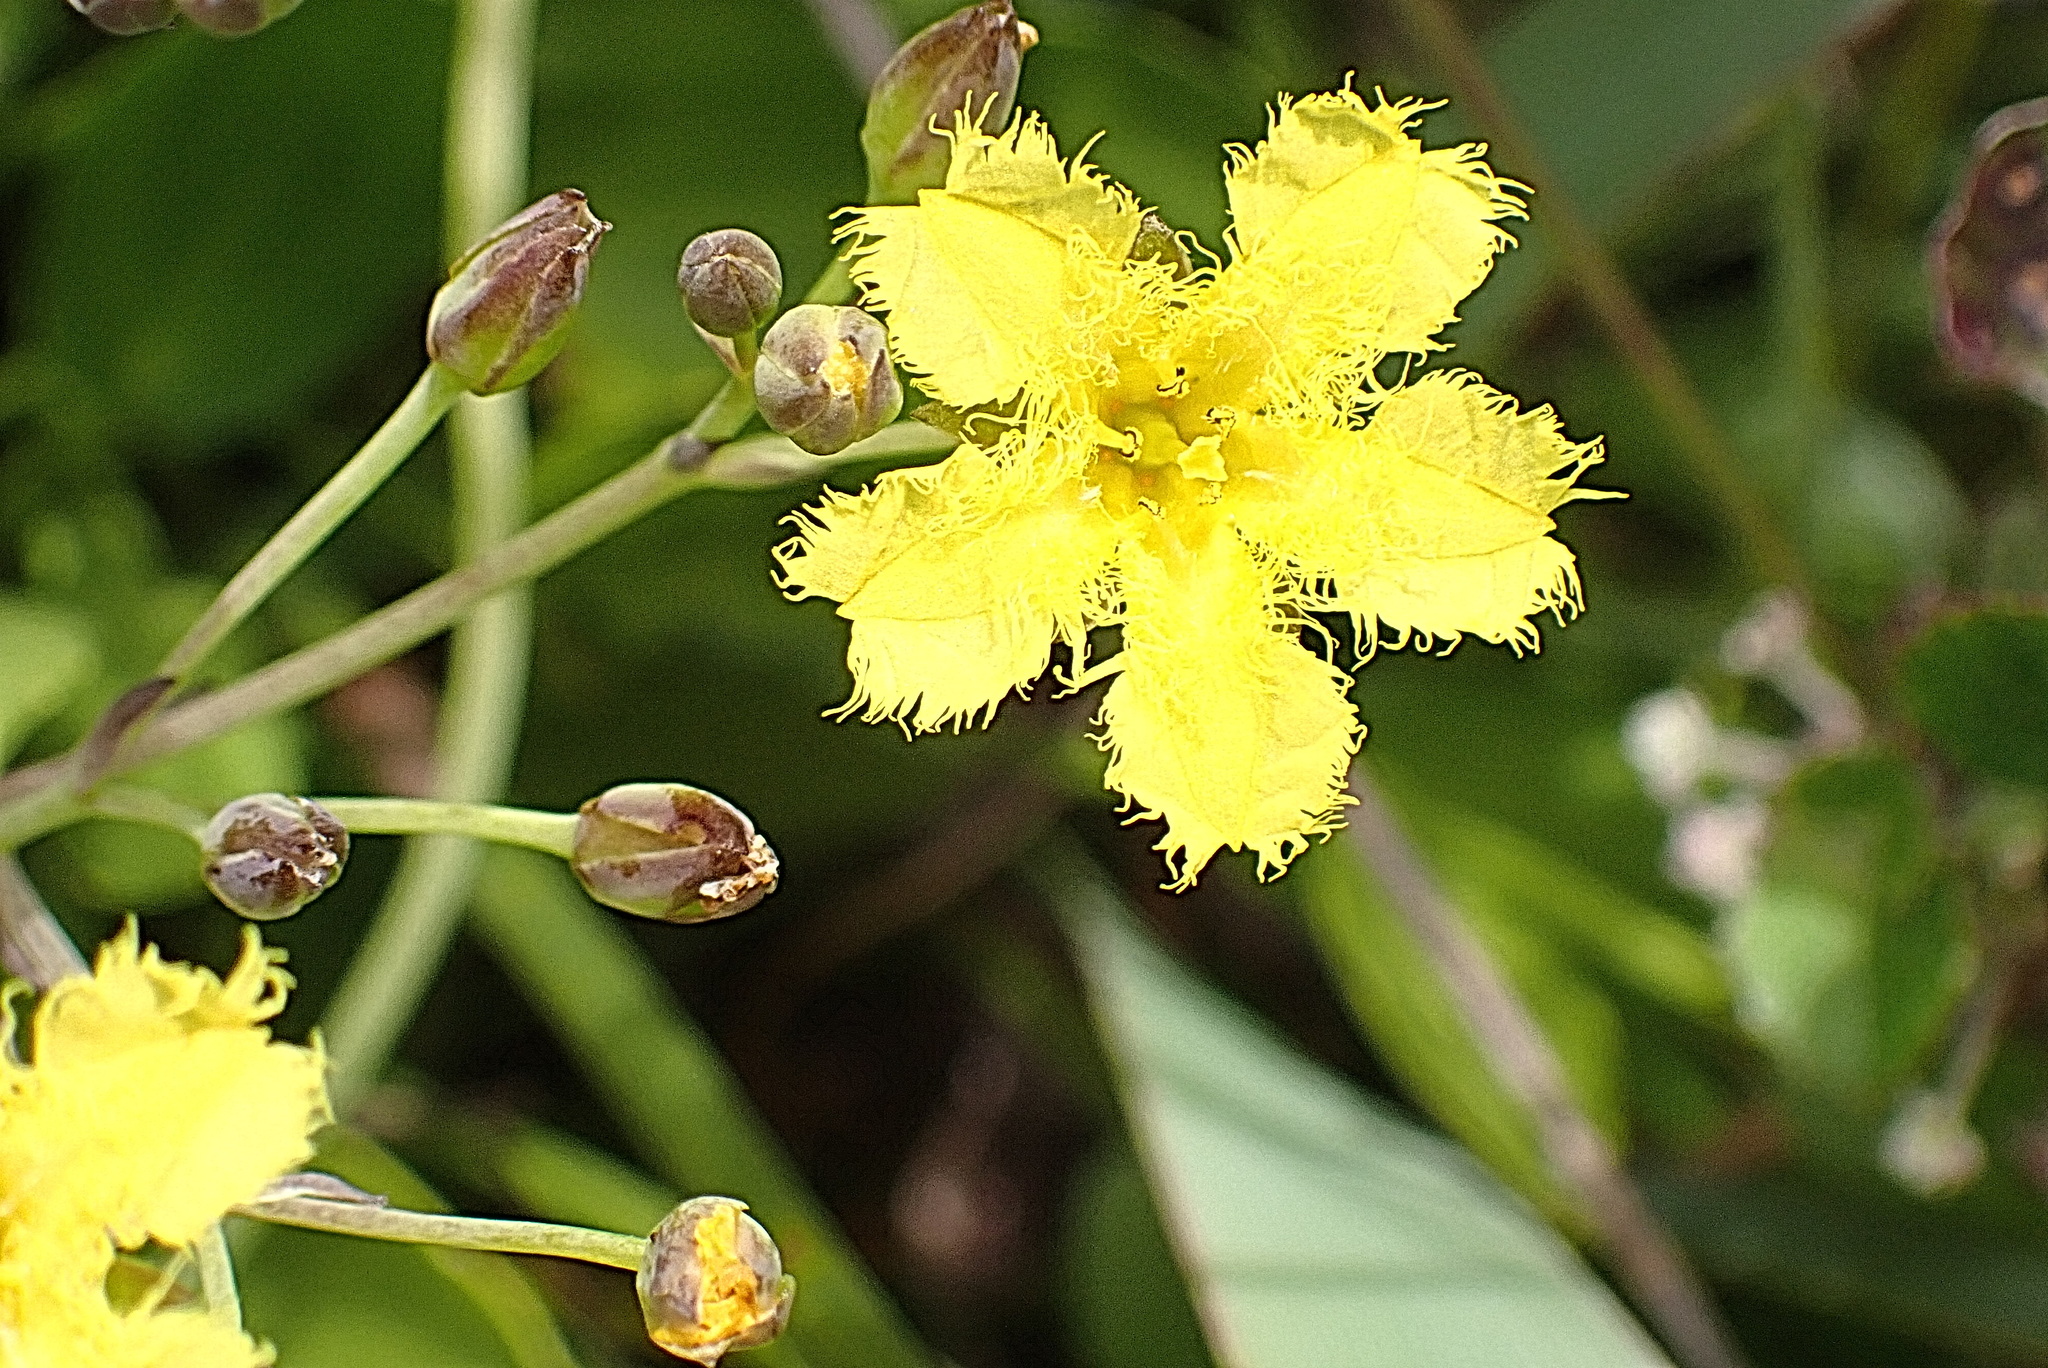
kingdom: Plantae
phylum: Tracheophyta
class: Magnoliopsida
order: Asterales
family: Menyanthaceae
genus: Villarsia
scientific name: Villarsia capensis
